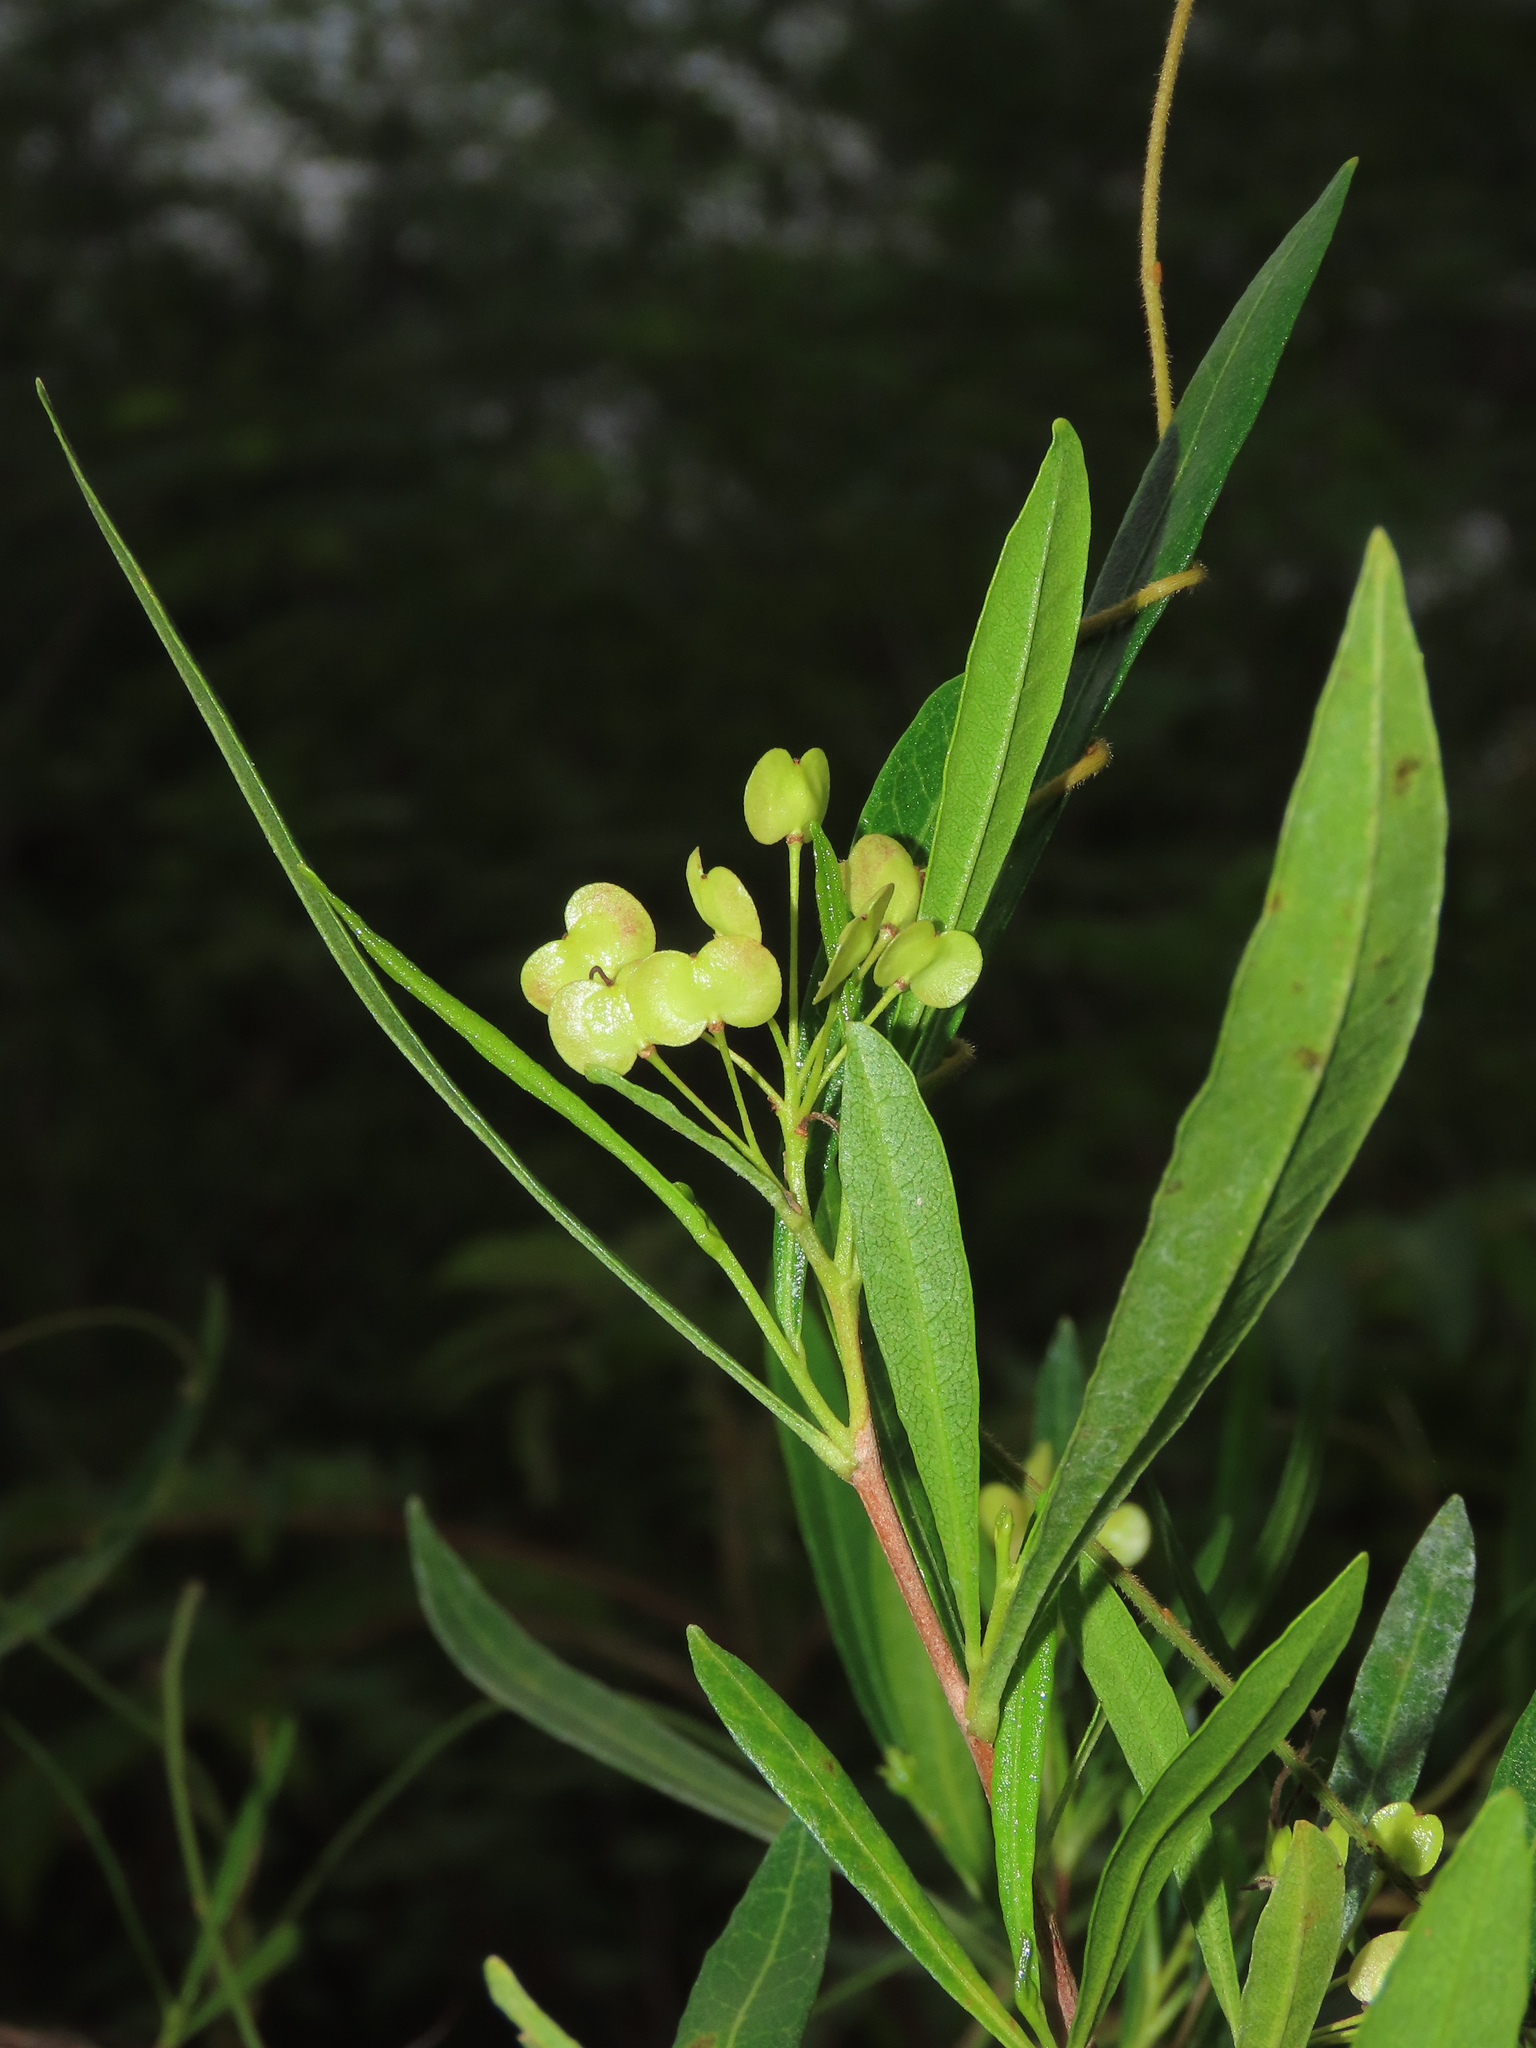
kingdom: Plantae
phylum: Tracheophyta
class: Magnoliopsida
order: Sapindales
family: Sapindaceae
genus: Dodonaea
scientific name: Dodonaea viscosa
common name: Hopbush
